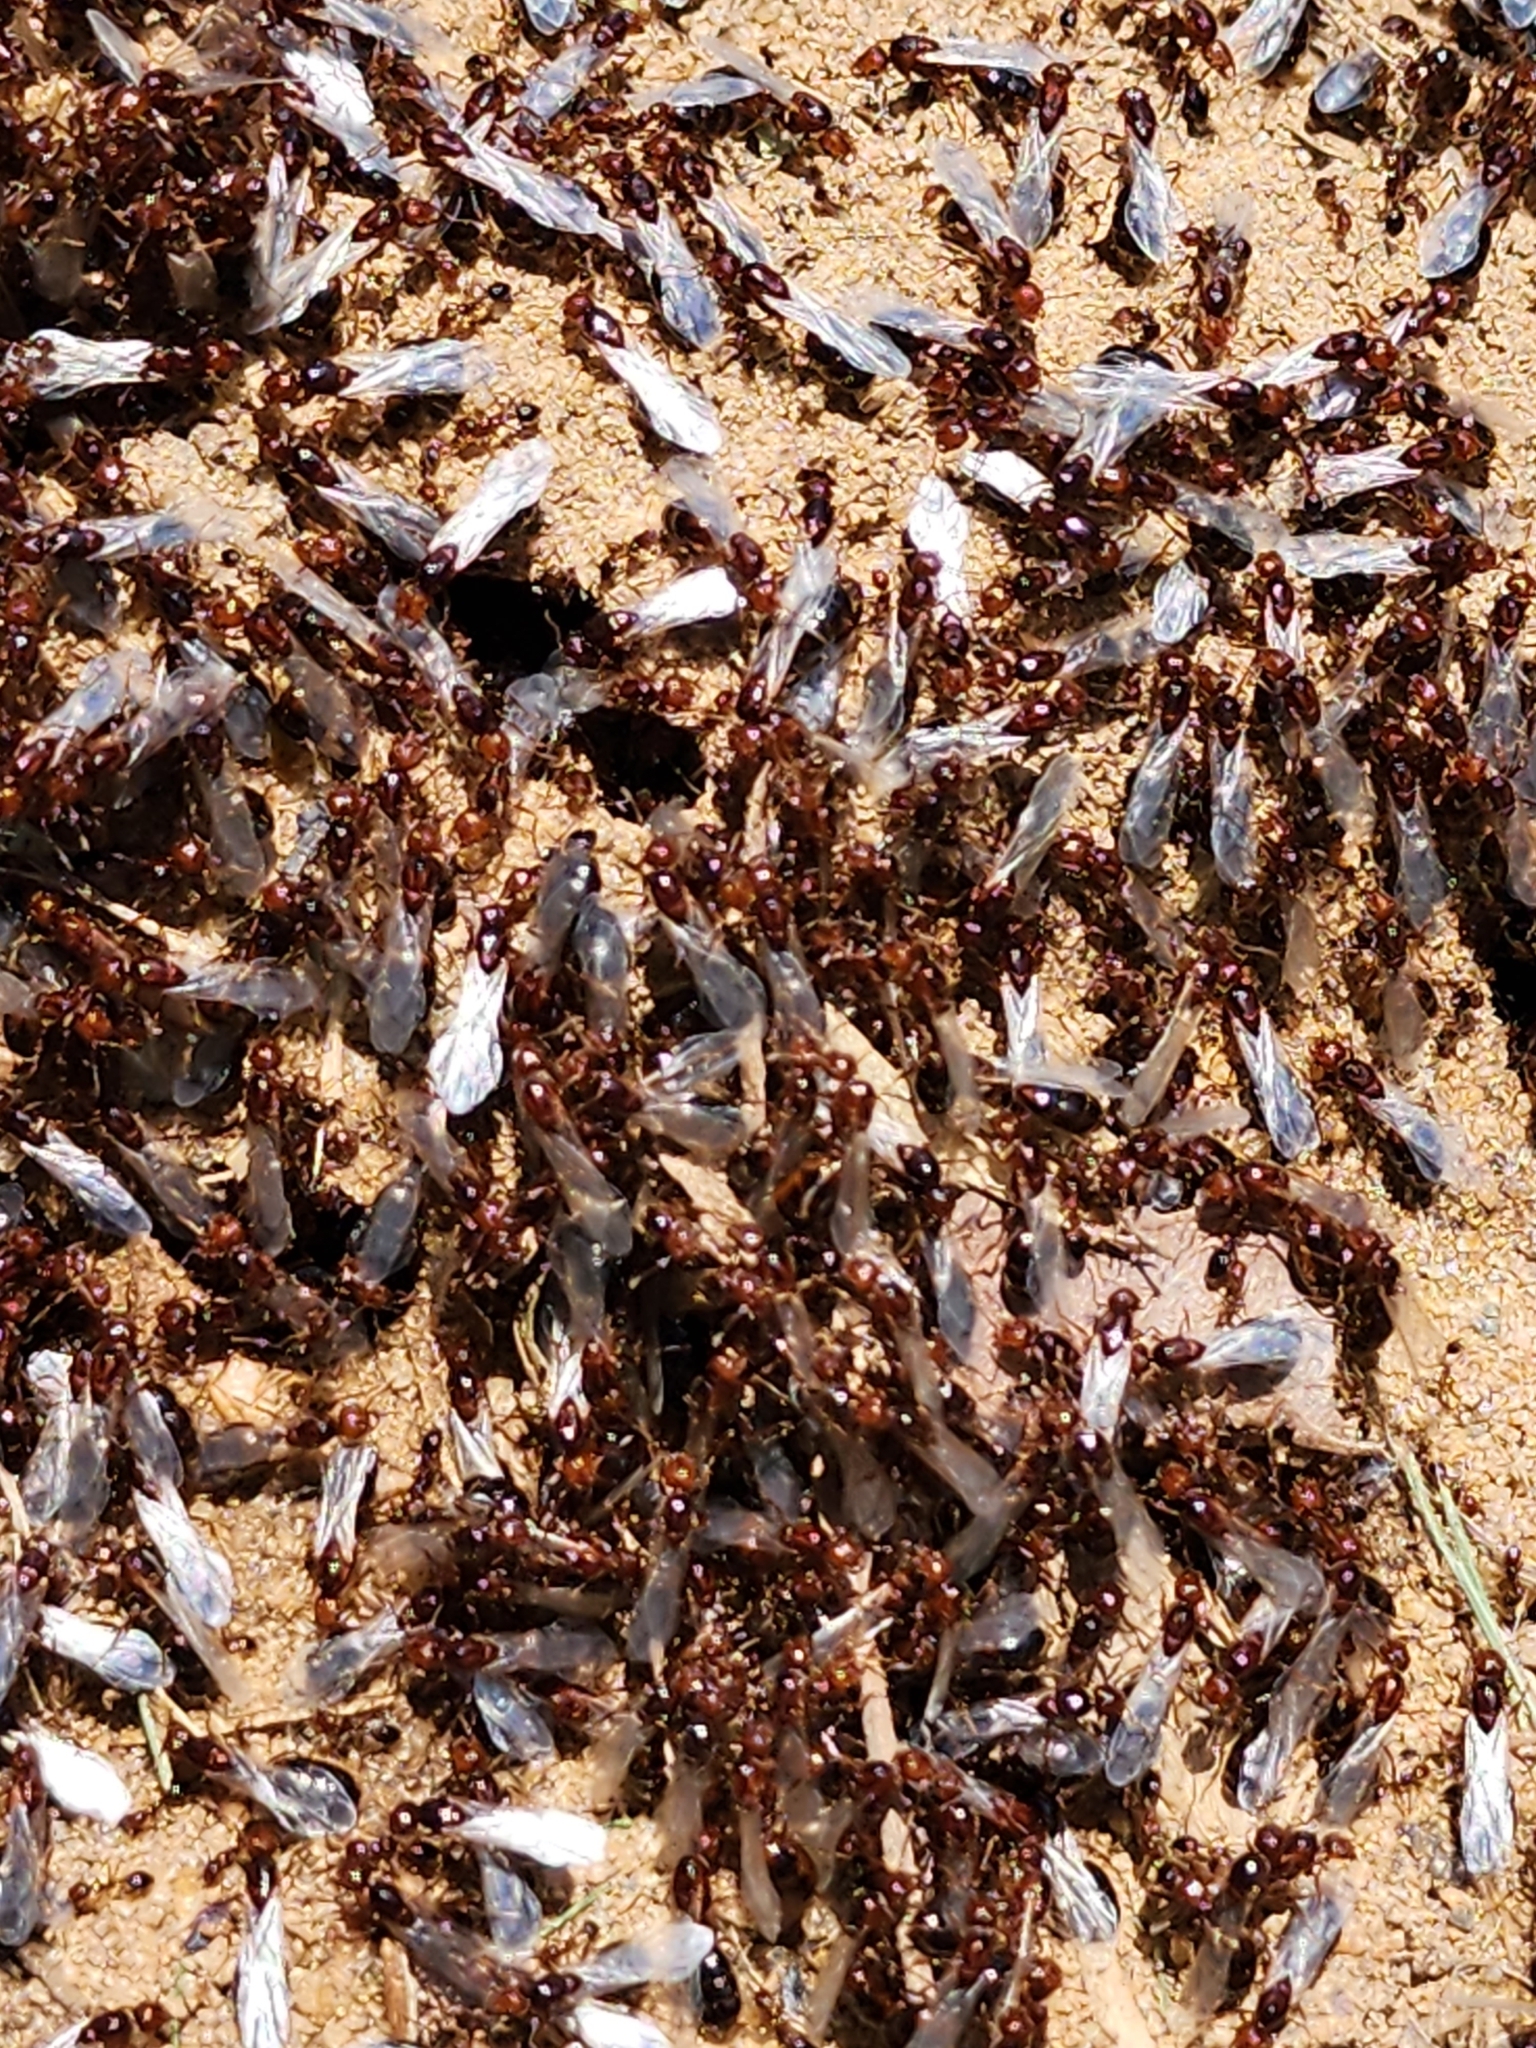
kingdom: Animalia
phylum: Arthropoda
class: Insecta
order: Hymenoptera
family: Formicidae
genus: Solenopsis
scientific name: Solenopsis invicta
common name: Red imported fire ant
